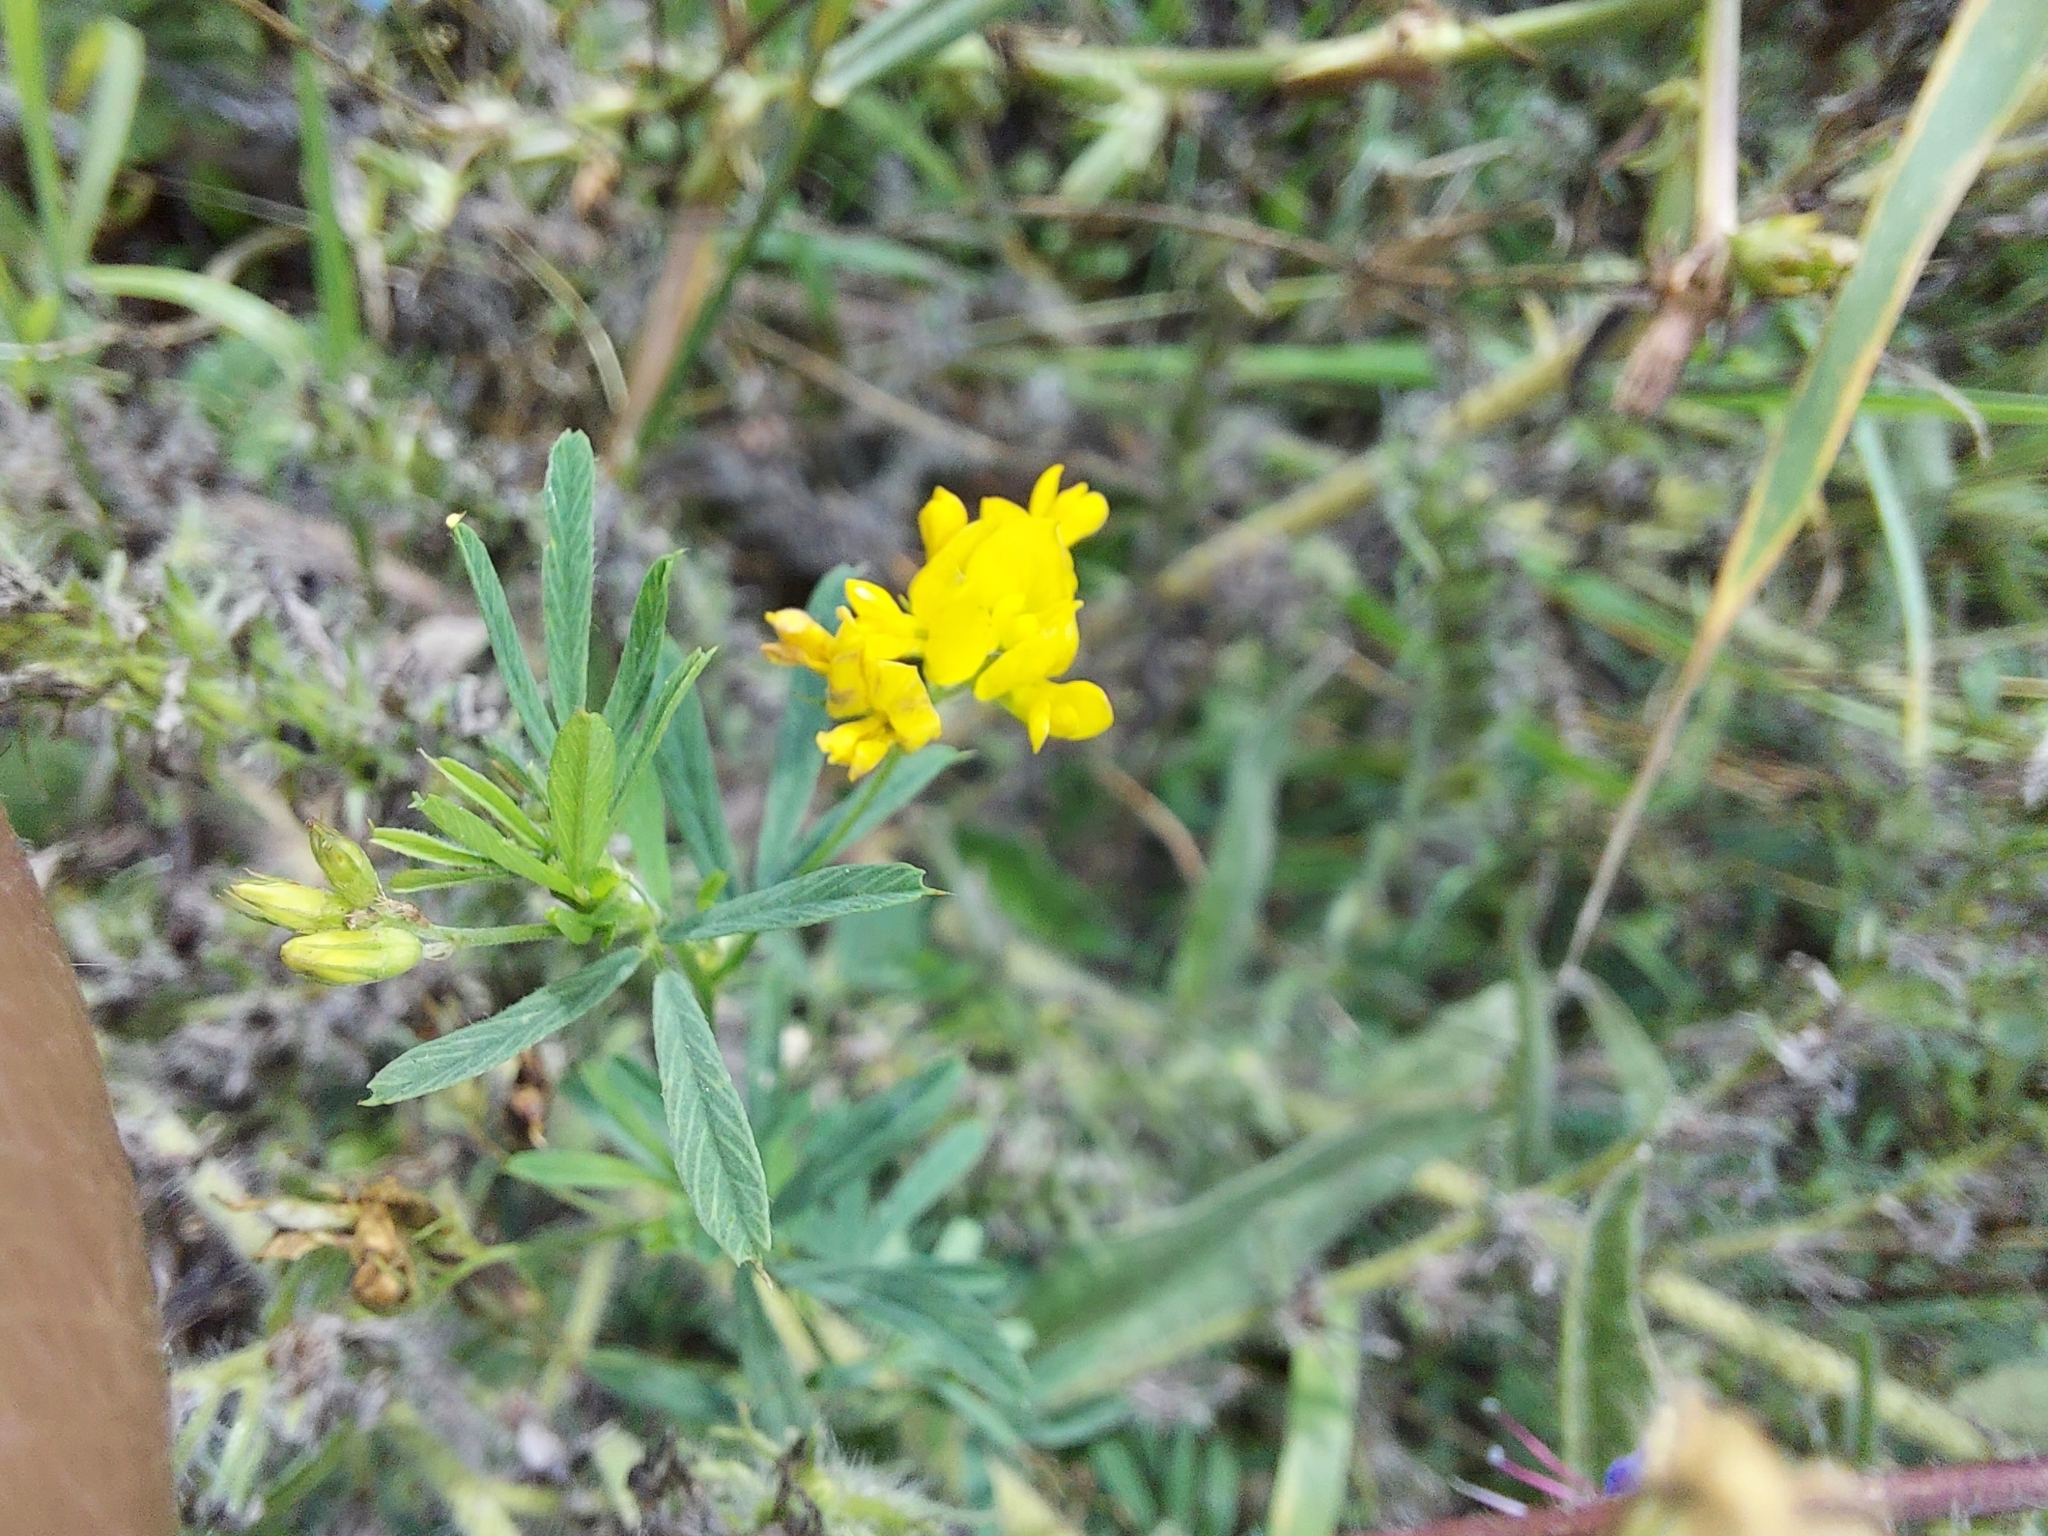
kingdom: Plantae
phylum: Tracheophyta
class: Magnoliopsida
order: Fabales
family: Fabaceae
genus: Medicago
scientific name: Medicago falcata
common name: Sickle medick
